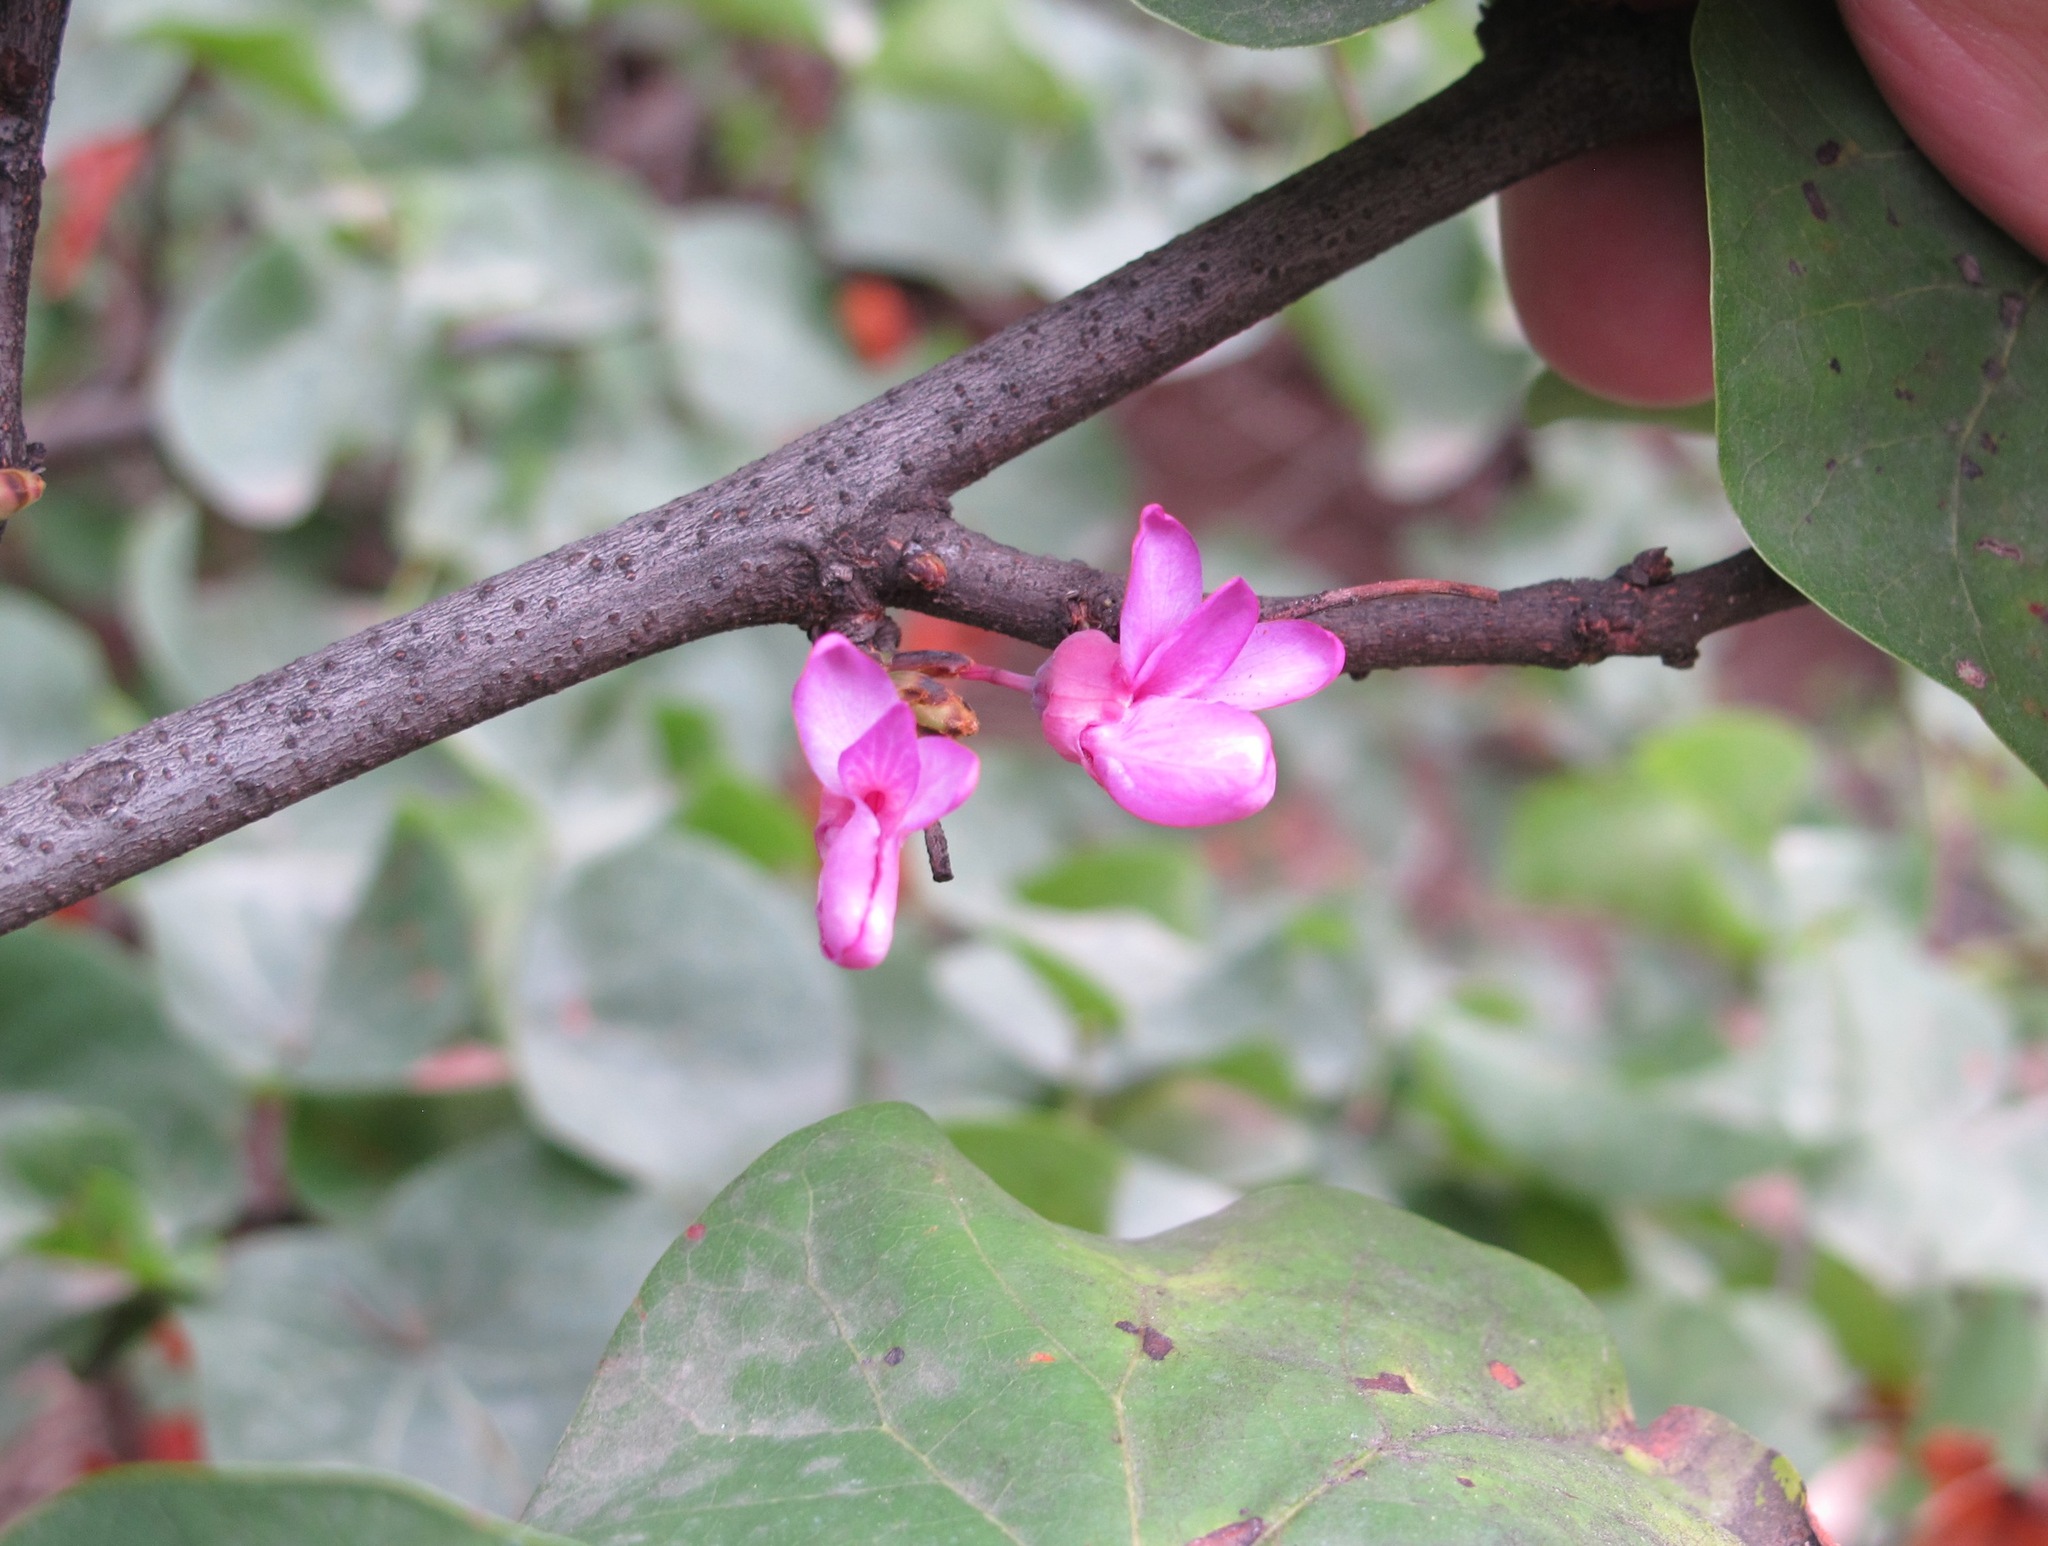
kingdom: Plantae
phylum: Tracheophyta
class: Magnoliopsida
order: Fabales
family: Fabaceae
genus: Cercis
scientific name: Cercis siliquastrum
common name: Judas tree
